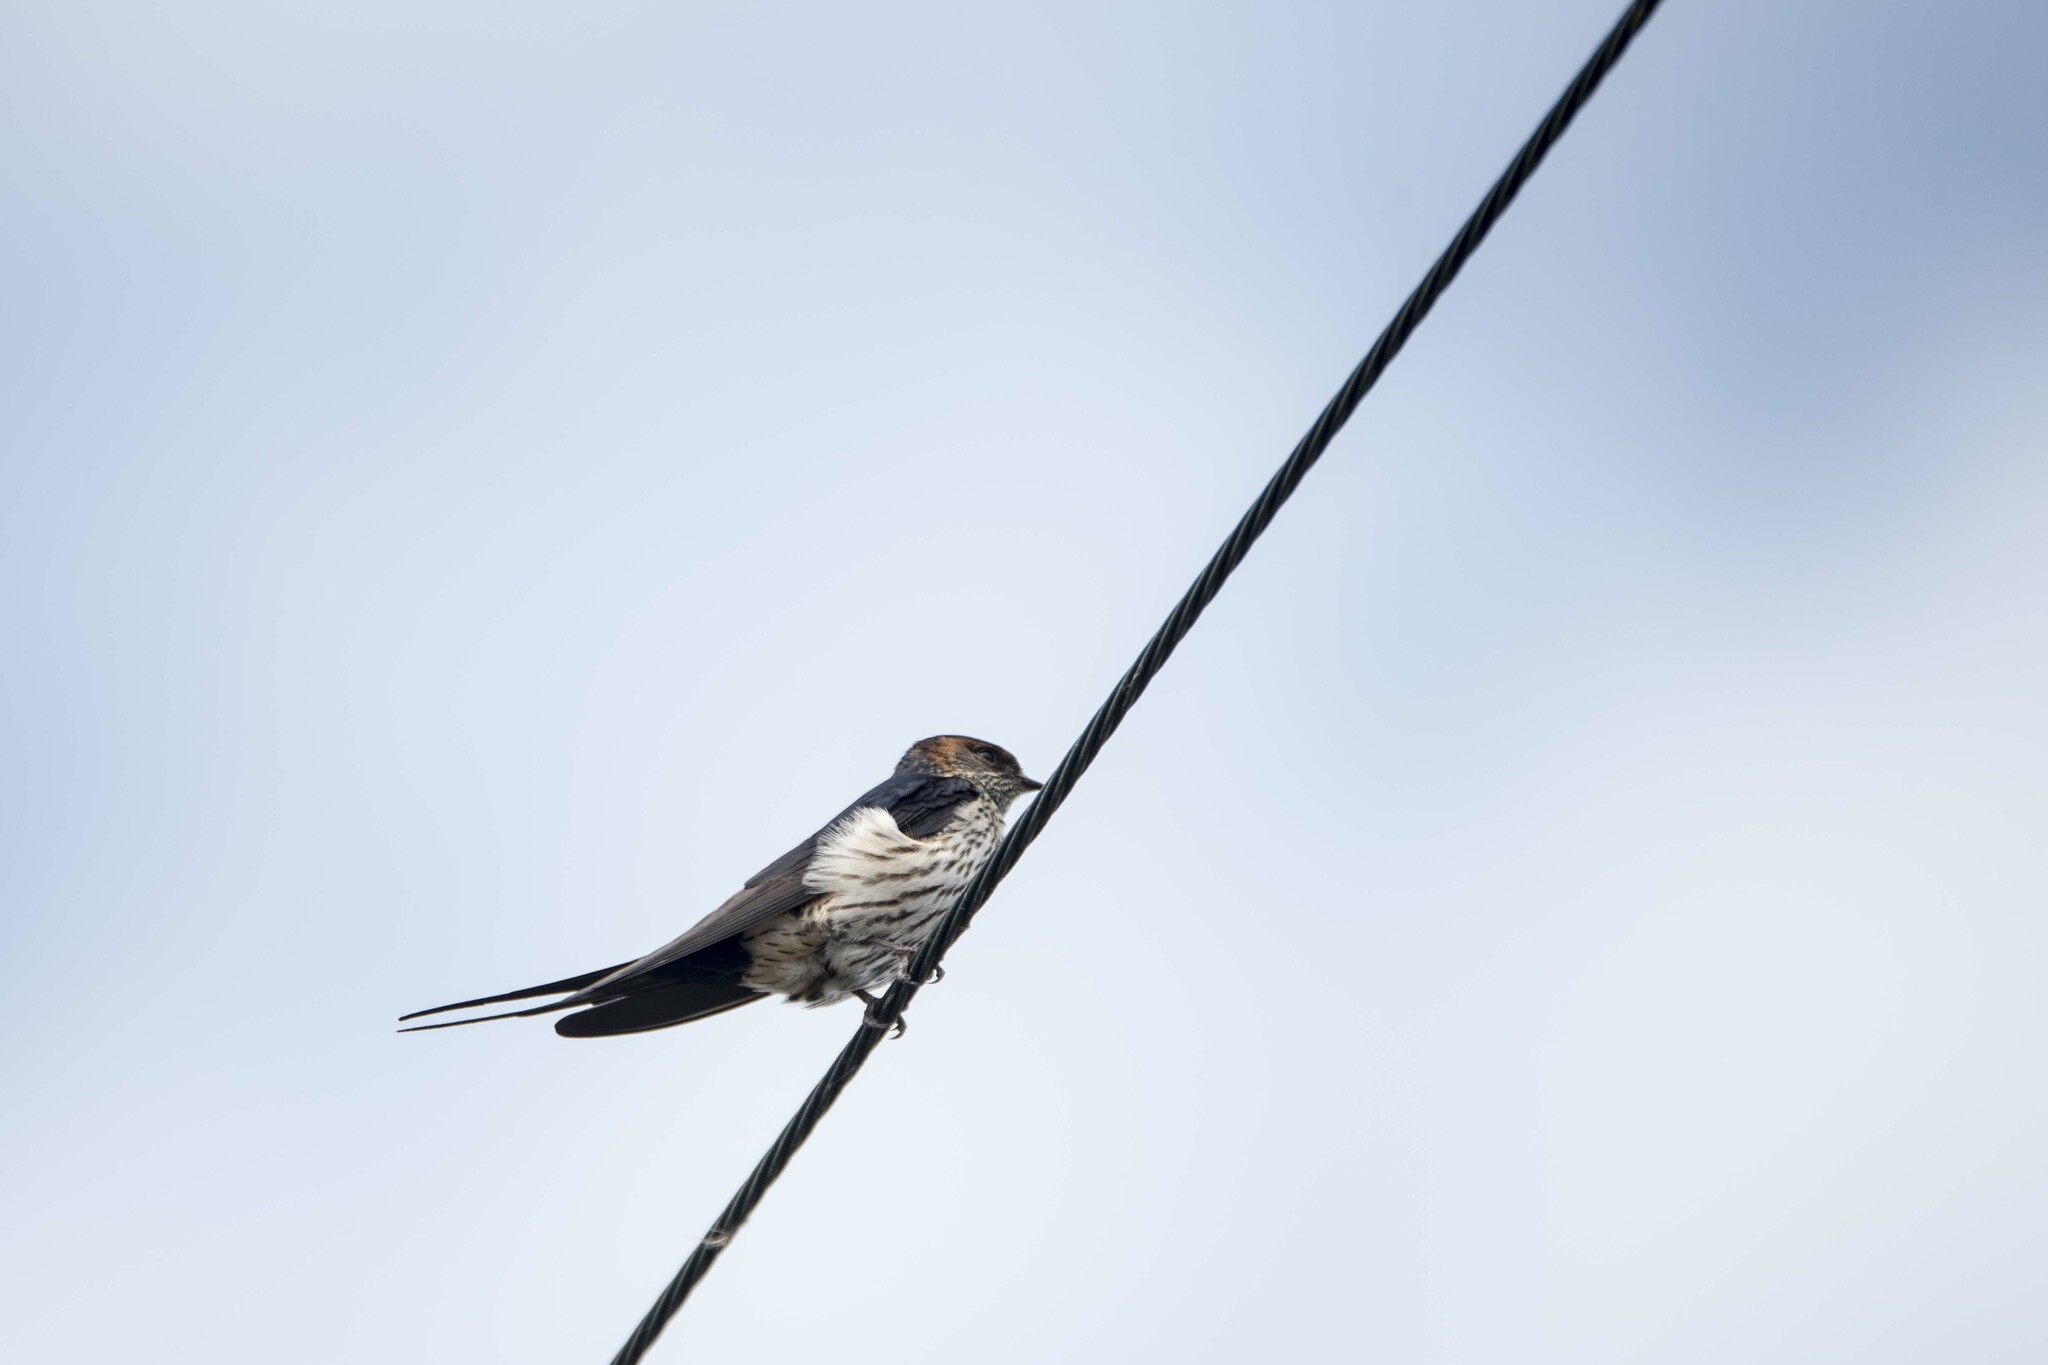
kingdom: Animalia
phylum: Chordata
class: Aves
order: Passeriformes
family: Hirundinidae
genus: Cecropis
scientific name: Cecropis striolata
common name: Striated swallow
